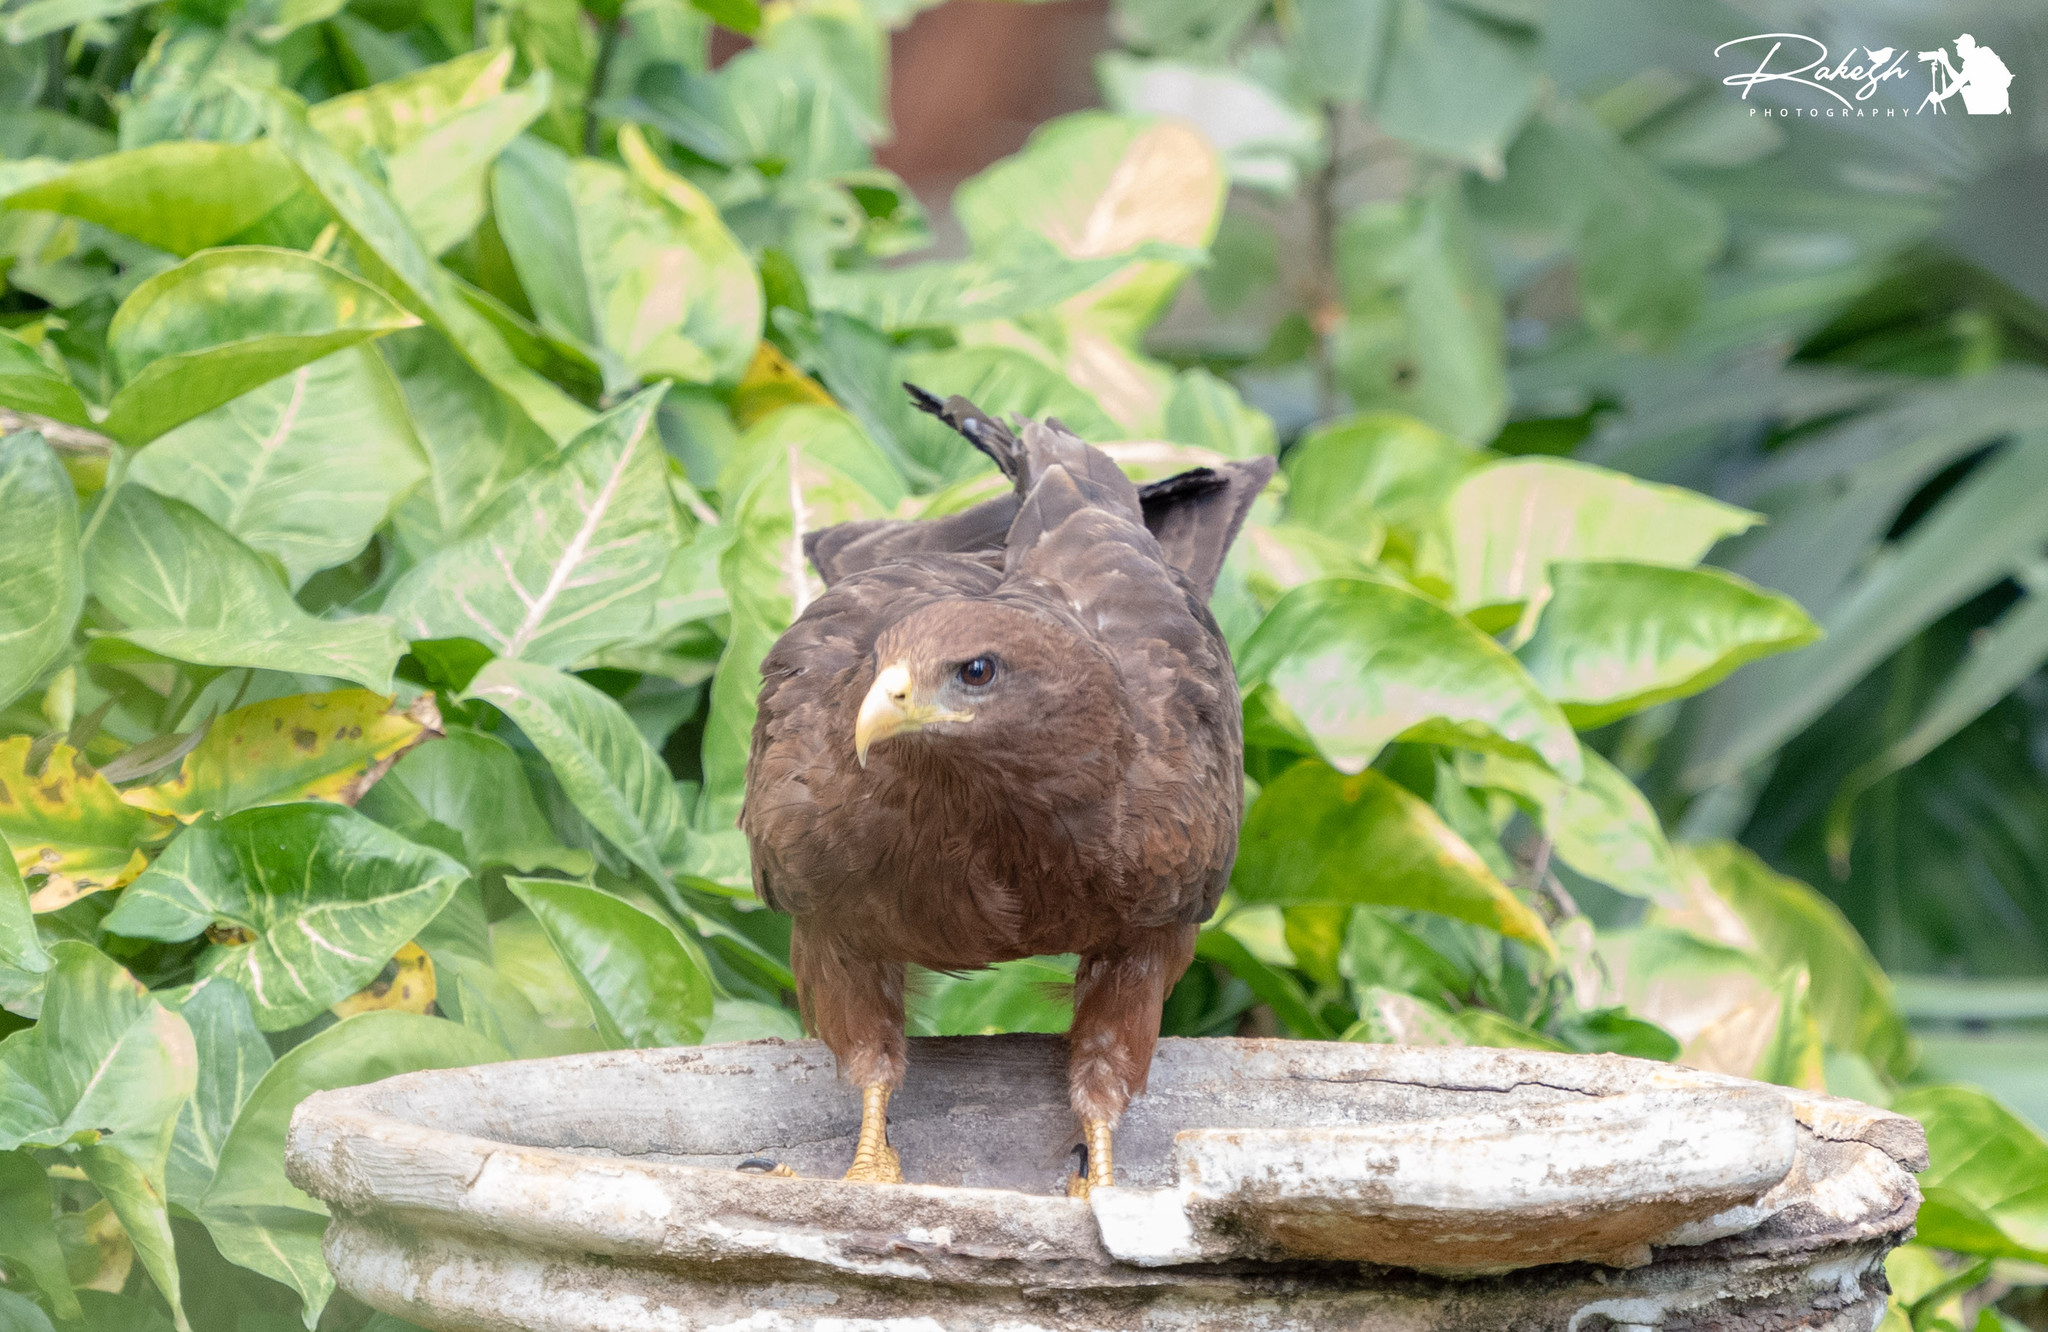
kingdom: Animalia
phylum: Chordata
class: Aves
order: Accipitriformes
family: Accipitridae
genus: Milvus
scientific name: Milvus migrans
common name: Black kite
